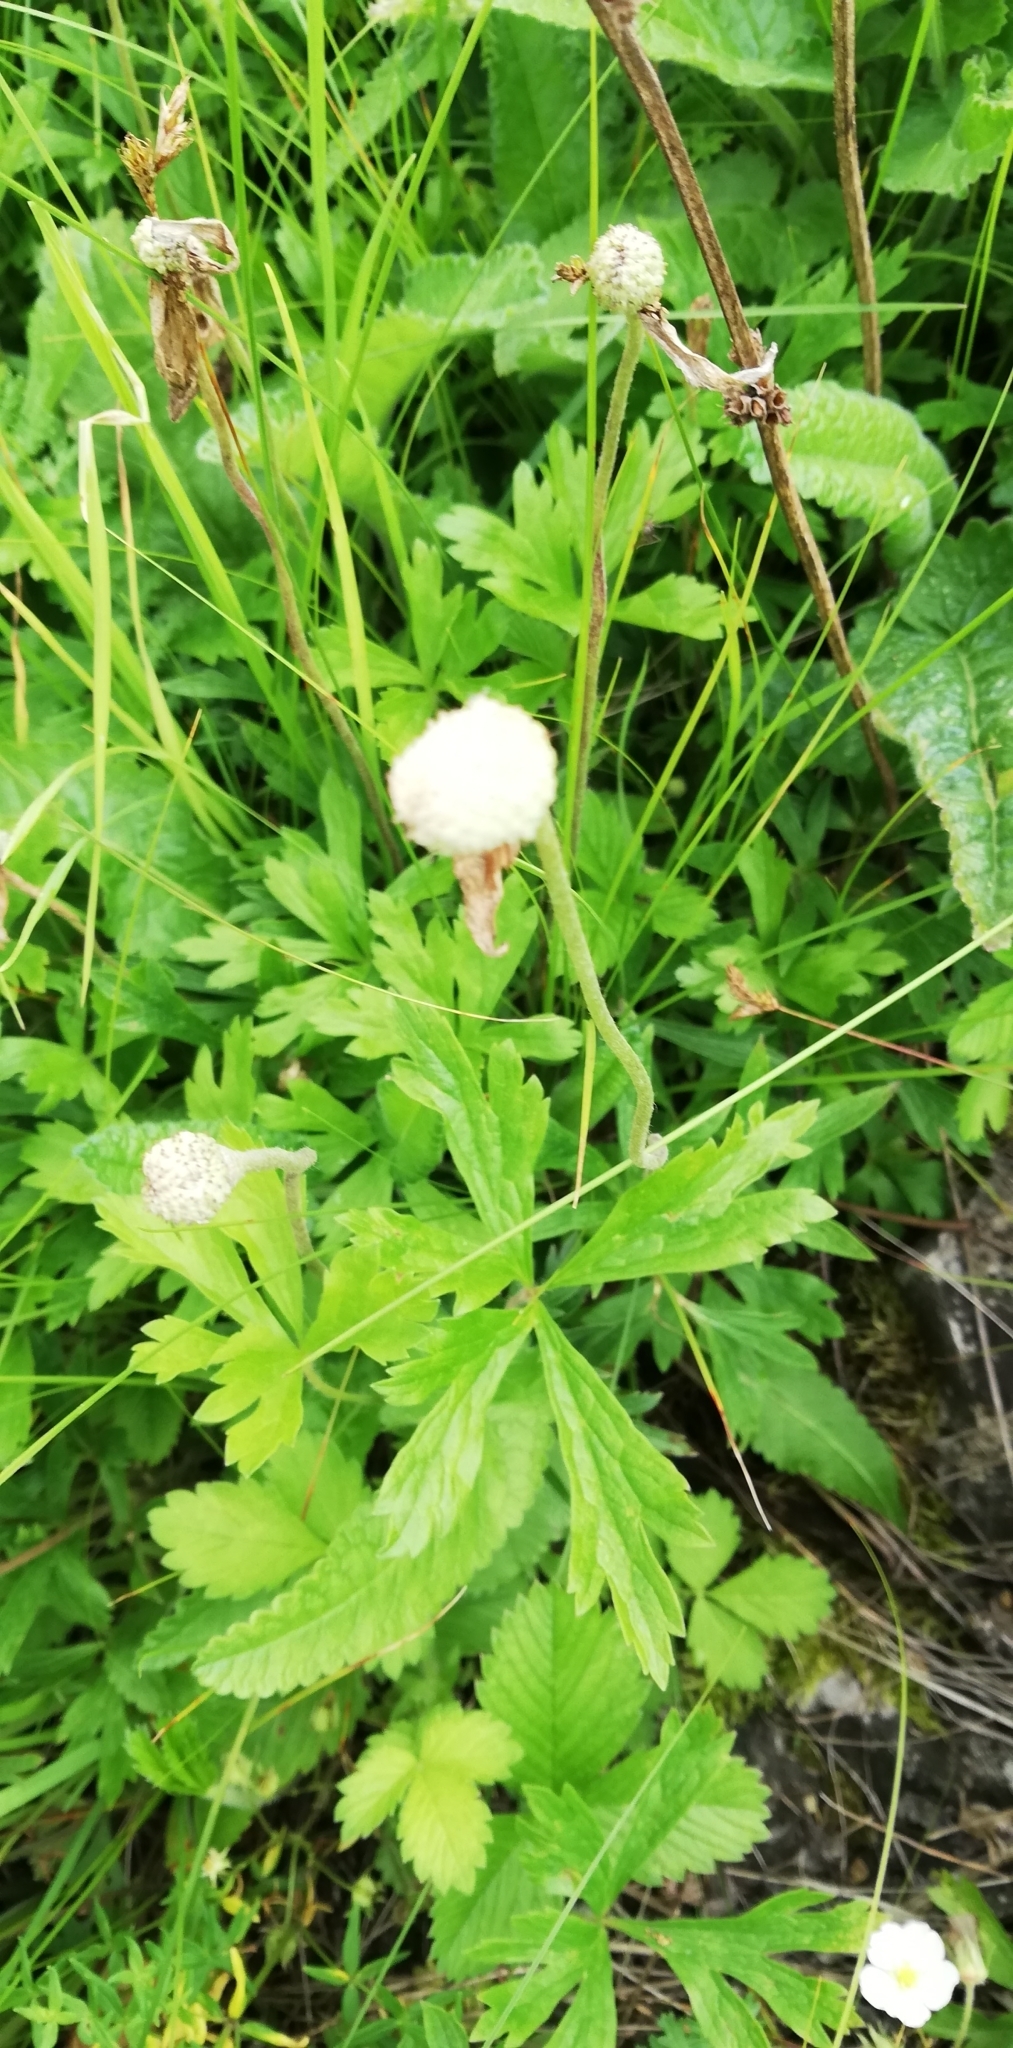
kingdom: Plantae
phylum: Tracheophyta
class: Magnoliopsida
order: Ranunculales
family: Ranunculaceae
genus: Anemone
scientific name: Anemone sylvestris
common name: Snowdrop anemone
